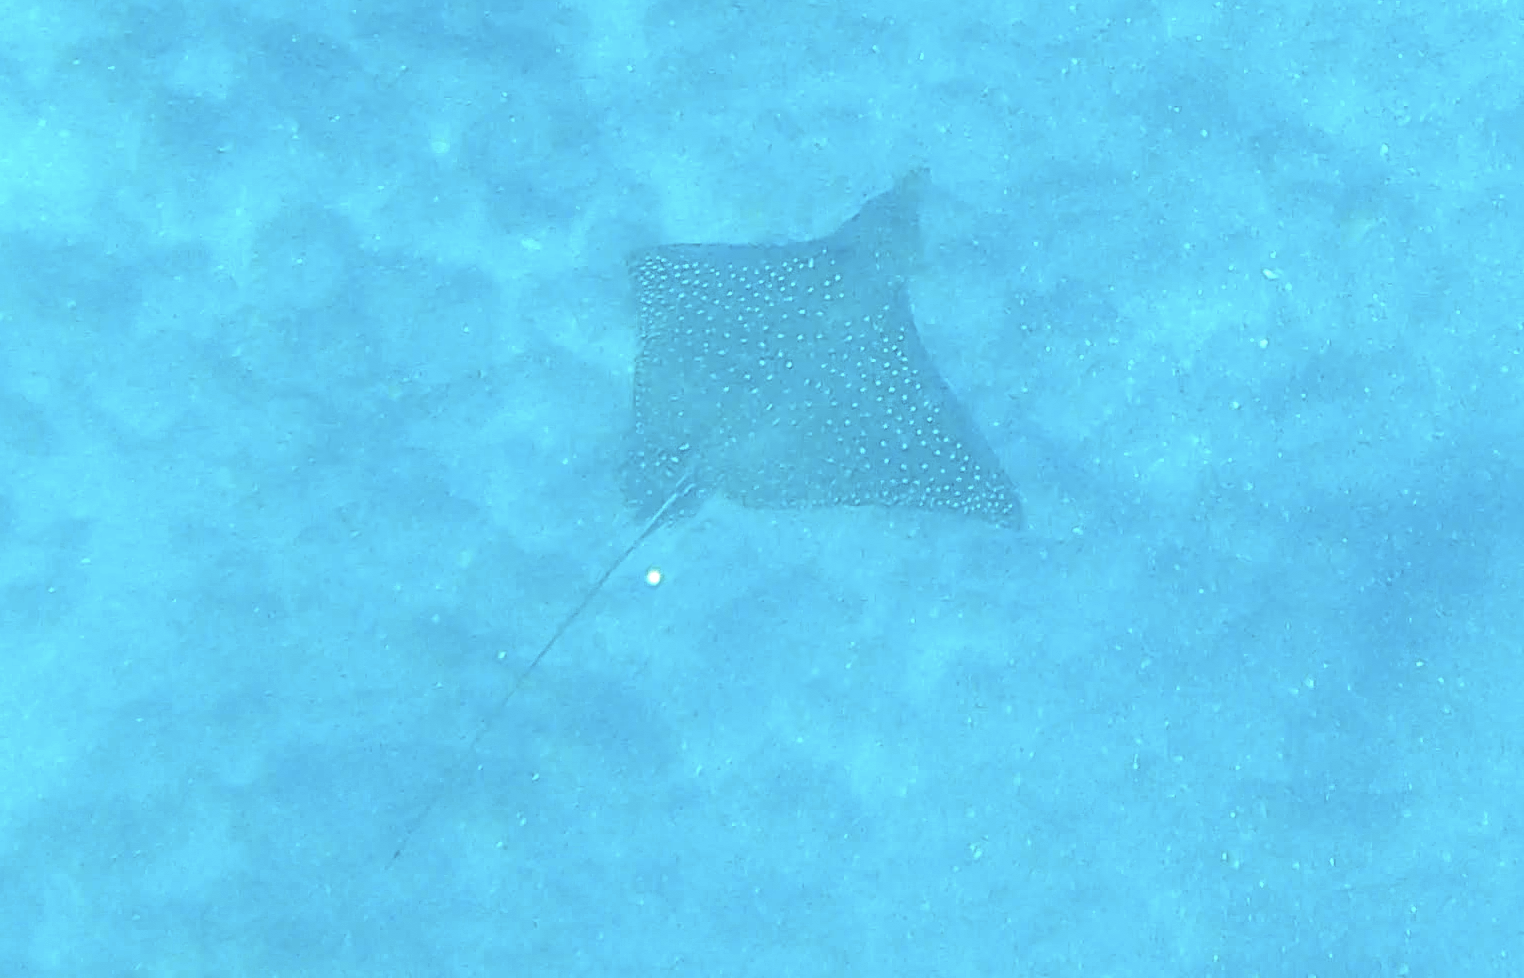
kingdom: Animalia
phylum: Chordata
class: Elasmobranchii
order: Myliobatiformes
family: Myliobatidae
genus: Aetobatus
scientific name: Aetobatus ocellatus
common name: Ocellated eagle ray
